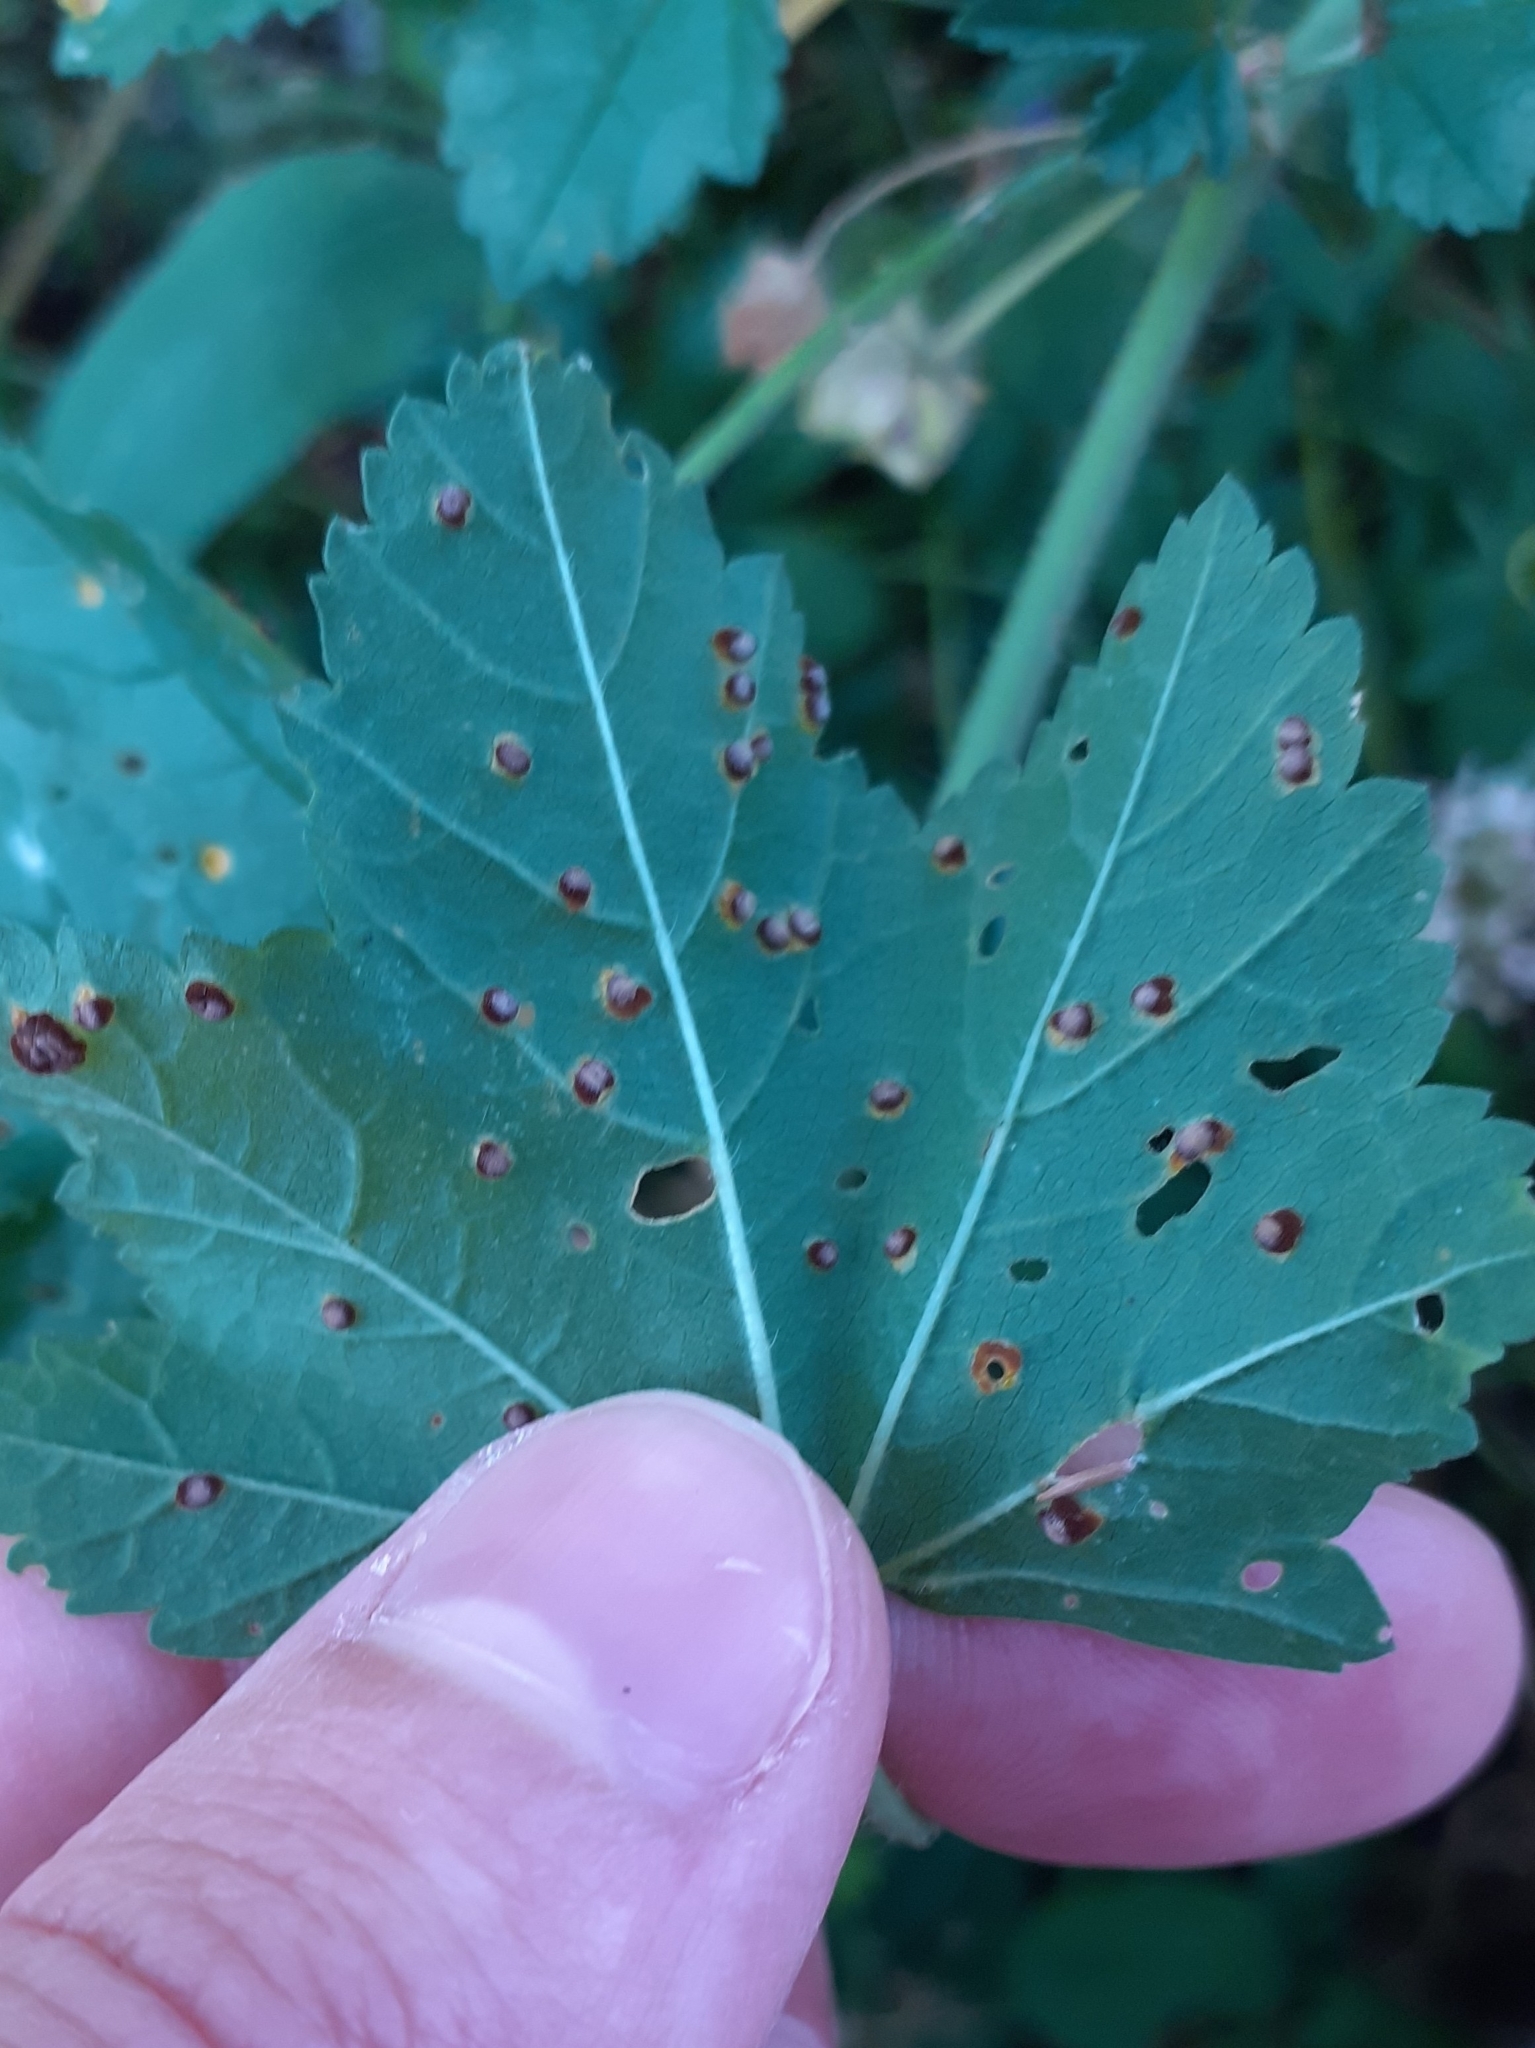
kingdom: Fungi
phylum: Basidiomycota
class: Pucciniomycetes
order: Pucciniales
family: Pucciniaceae
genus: Puccinia
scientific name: Puccinia malvacearum
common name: Hollyhock rust
